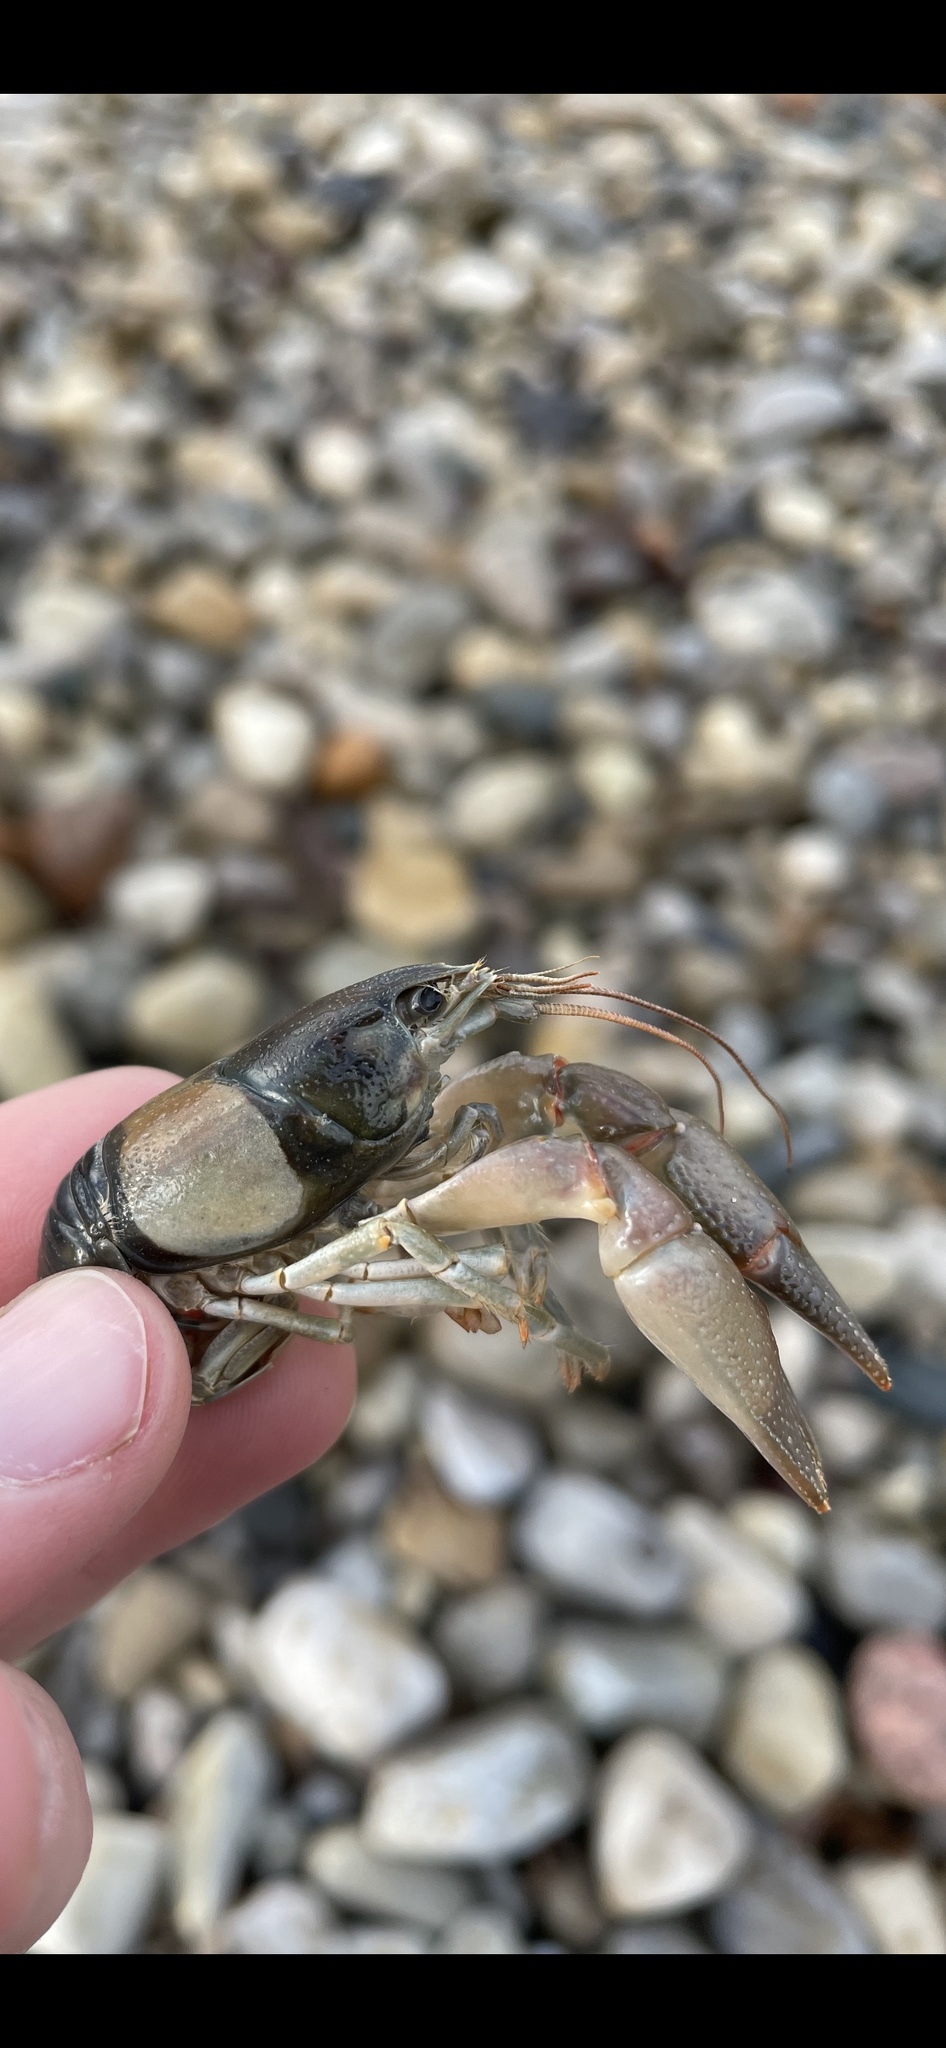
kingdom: Animalia
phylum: Arthropoda
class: Malacostraca
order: Decapoda
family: Cambaridae
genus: Faxonius
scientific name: Faxonius propinquus
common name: Northern clearwater crayfish
